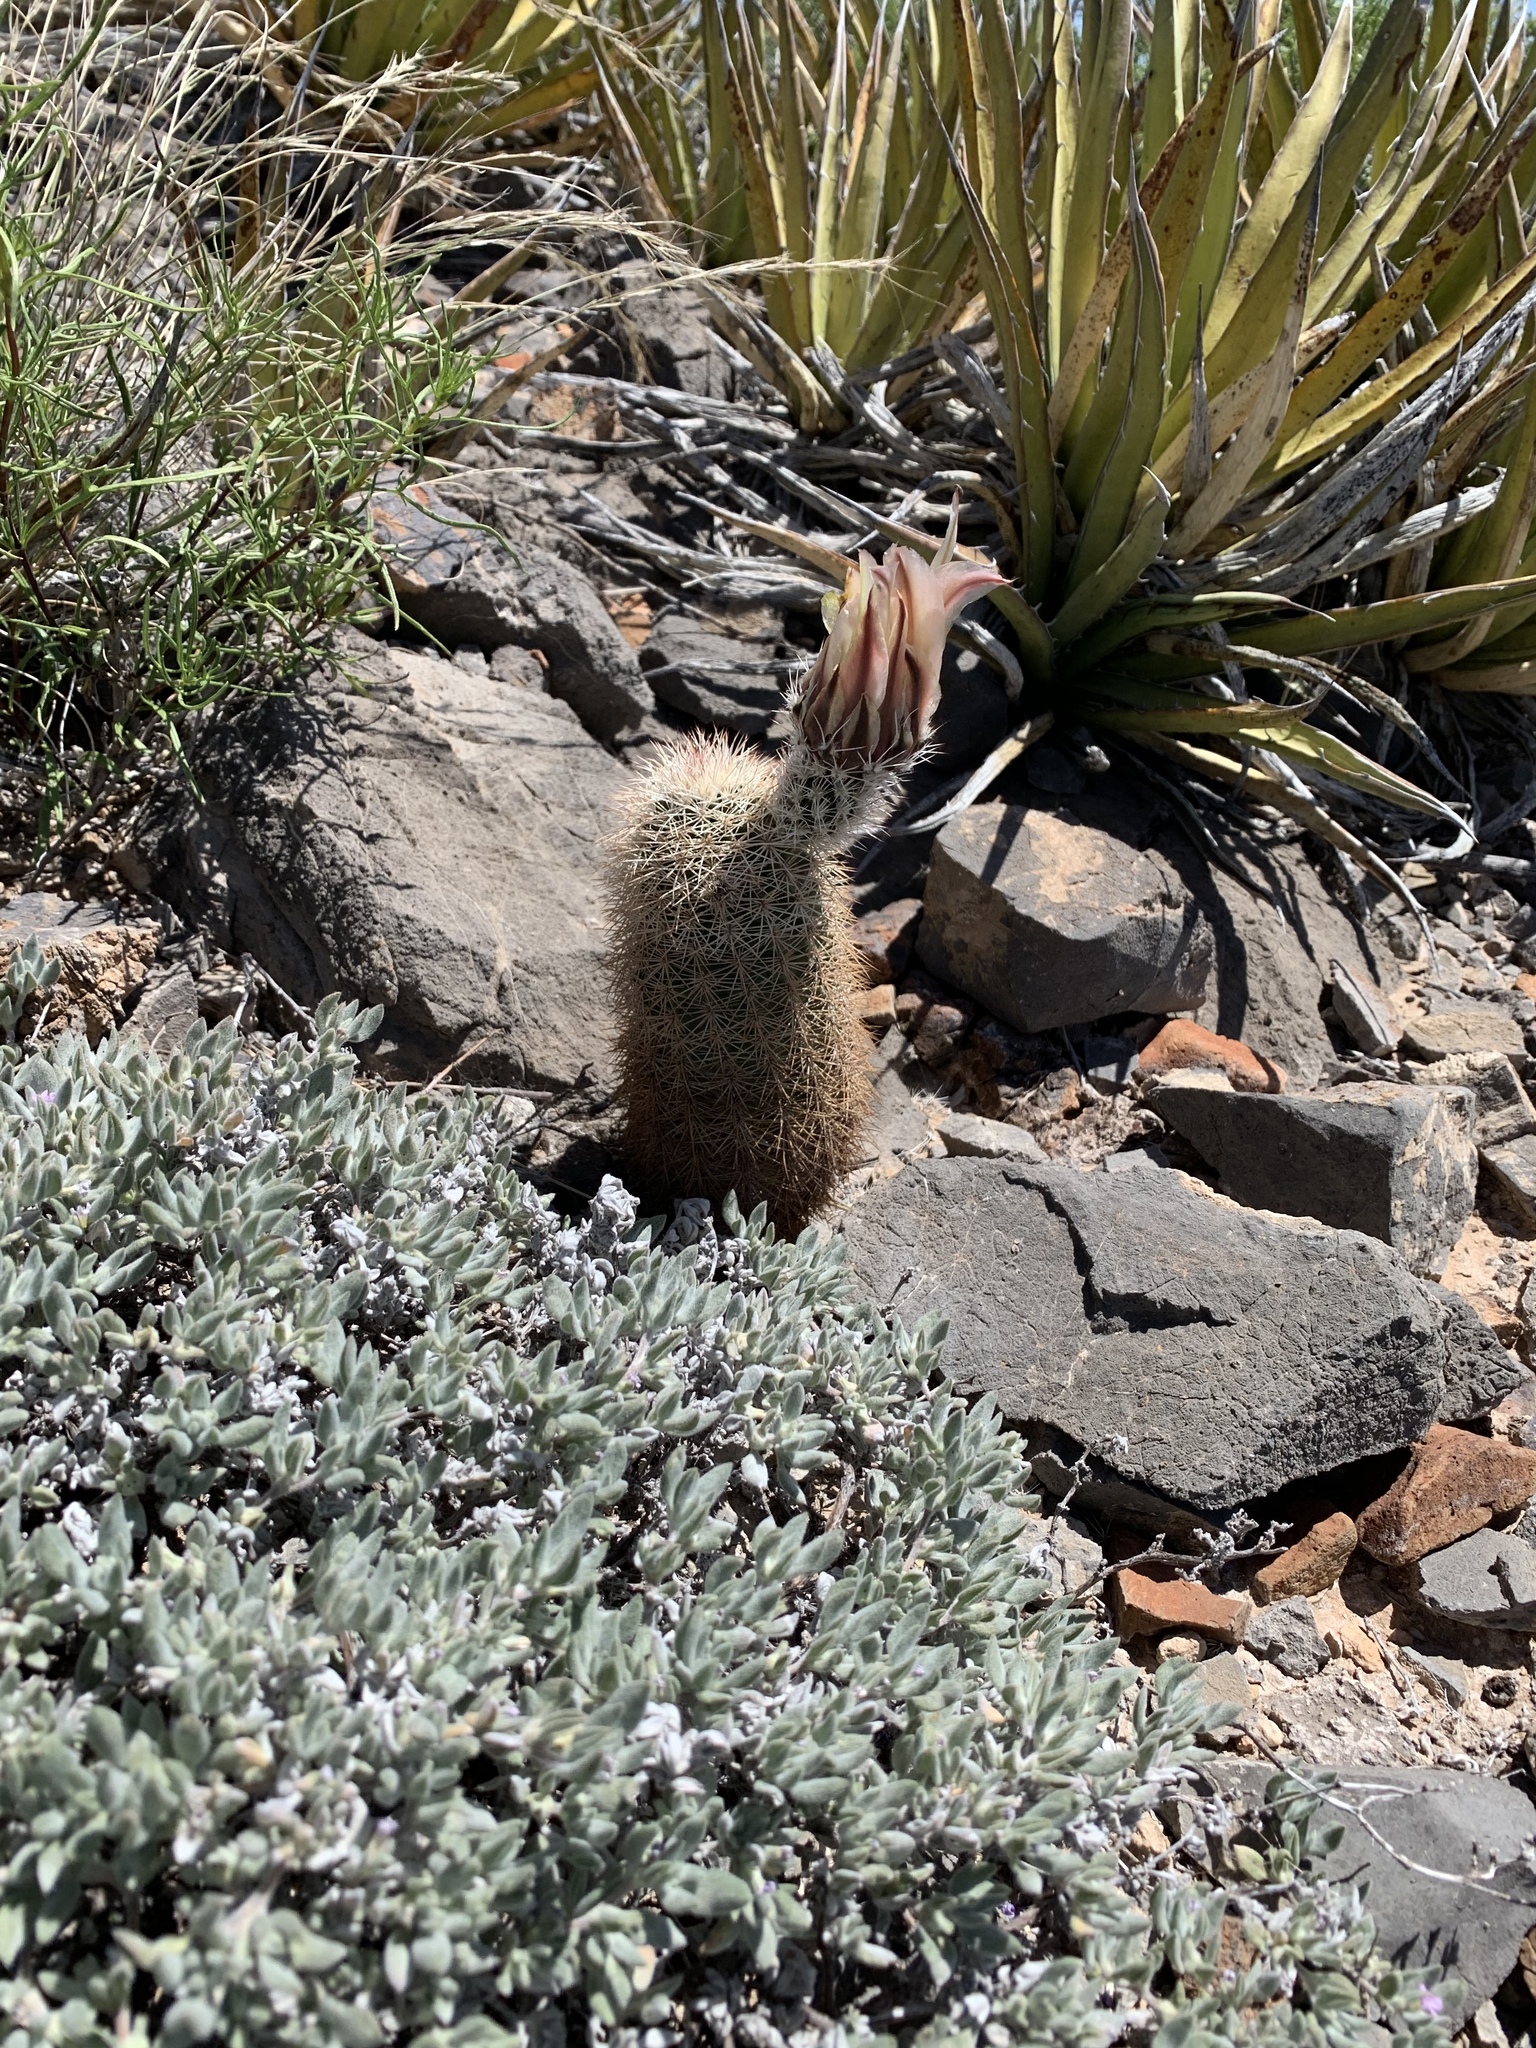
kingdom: Plantae
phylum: Tracheophyta
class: Magnoliopsida
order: Caryophyllales
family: Cactaceae
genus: Echinocereus
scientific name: Echinocereus dasyacanthus
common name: Spiny hedgehog cactus
